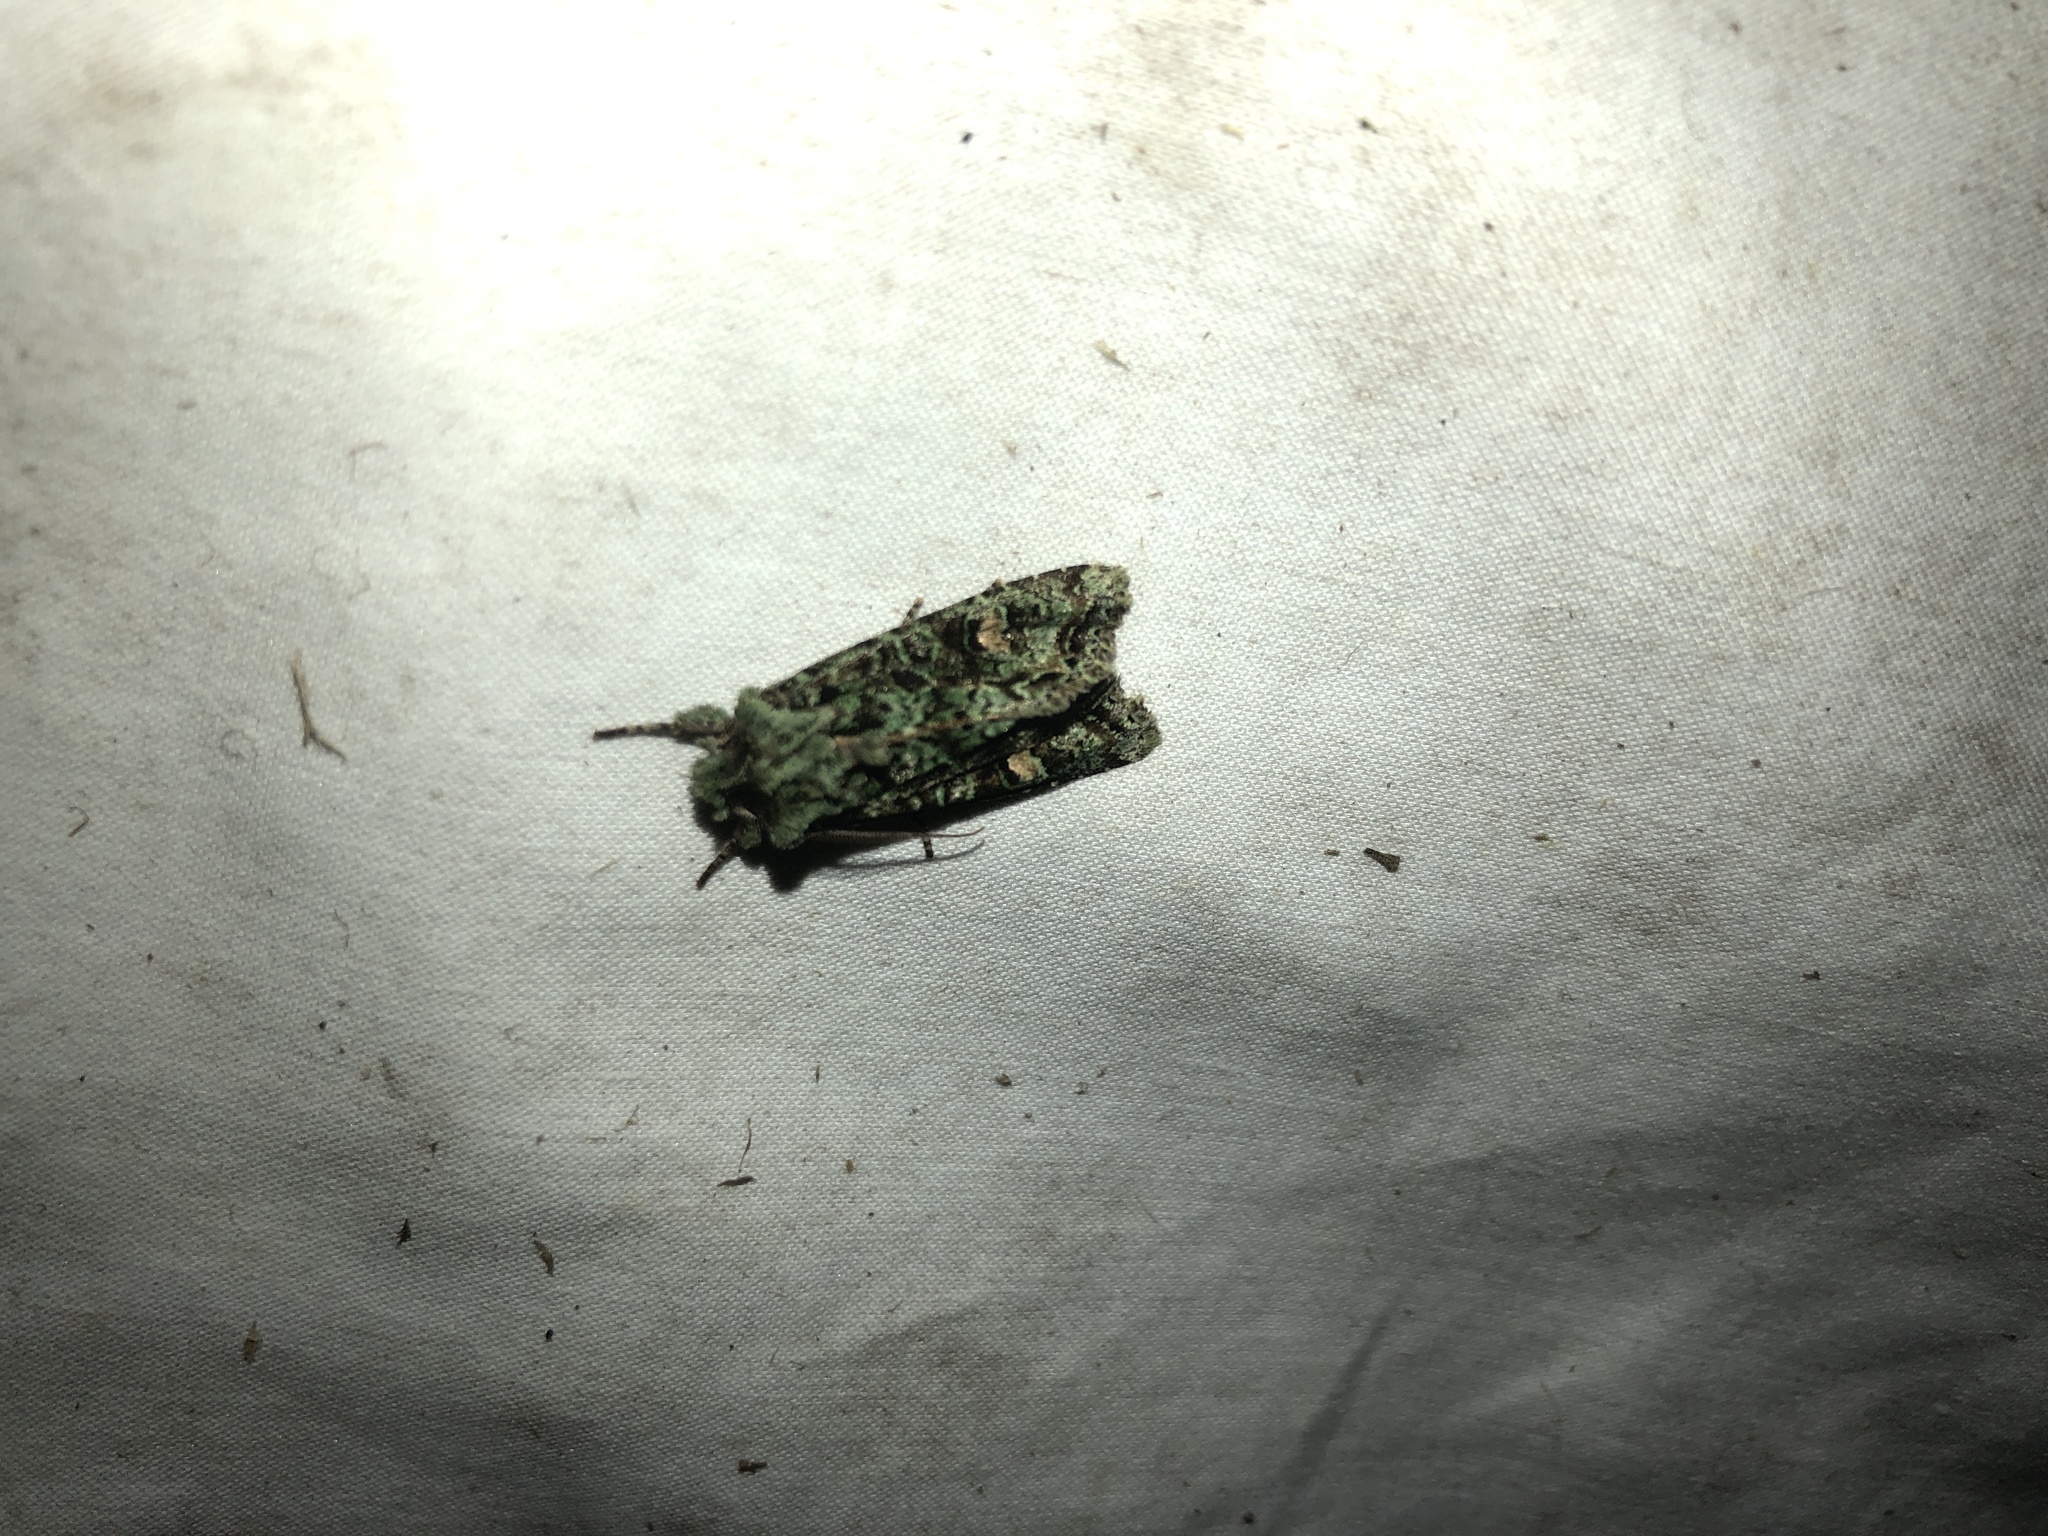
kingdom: Animalia
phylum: Arthropoda
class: Insecta
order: Lepidoptera
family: Noctuidae
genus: Ichneutica
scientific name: Ichneutica
